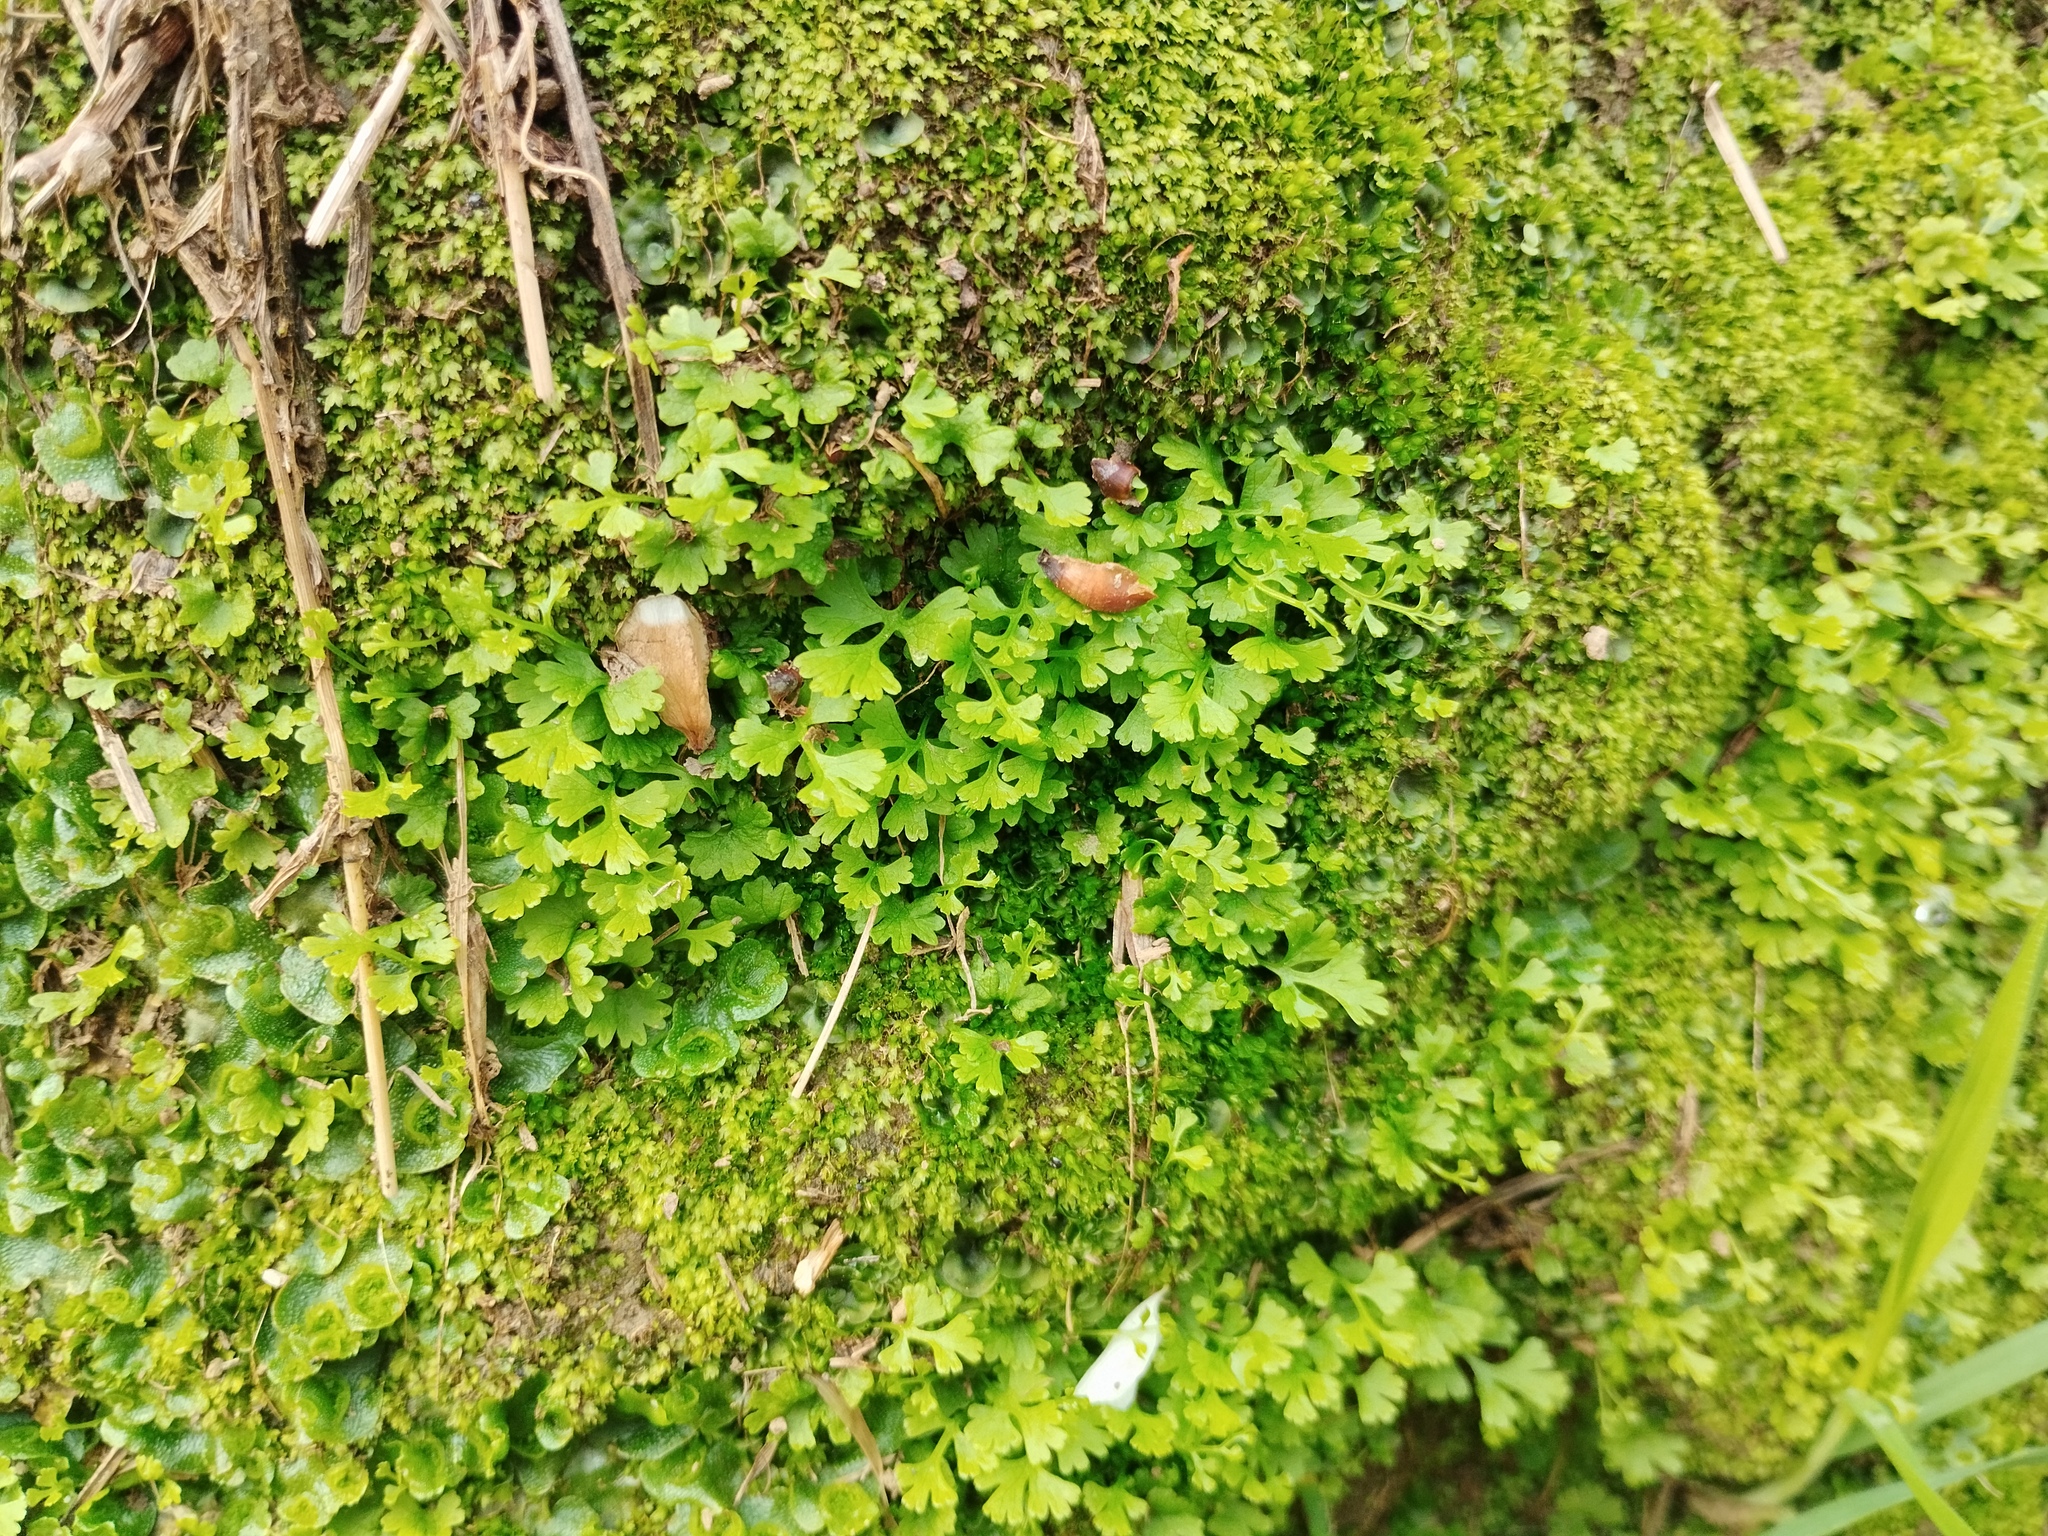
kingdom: Plantae
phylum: Tracheophyta
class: Polypodiopsida
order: Polypodiales
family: Pteridaceae
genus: Anogramma
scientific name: Anogramma leptophylla
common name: Jersey fern
